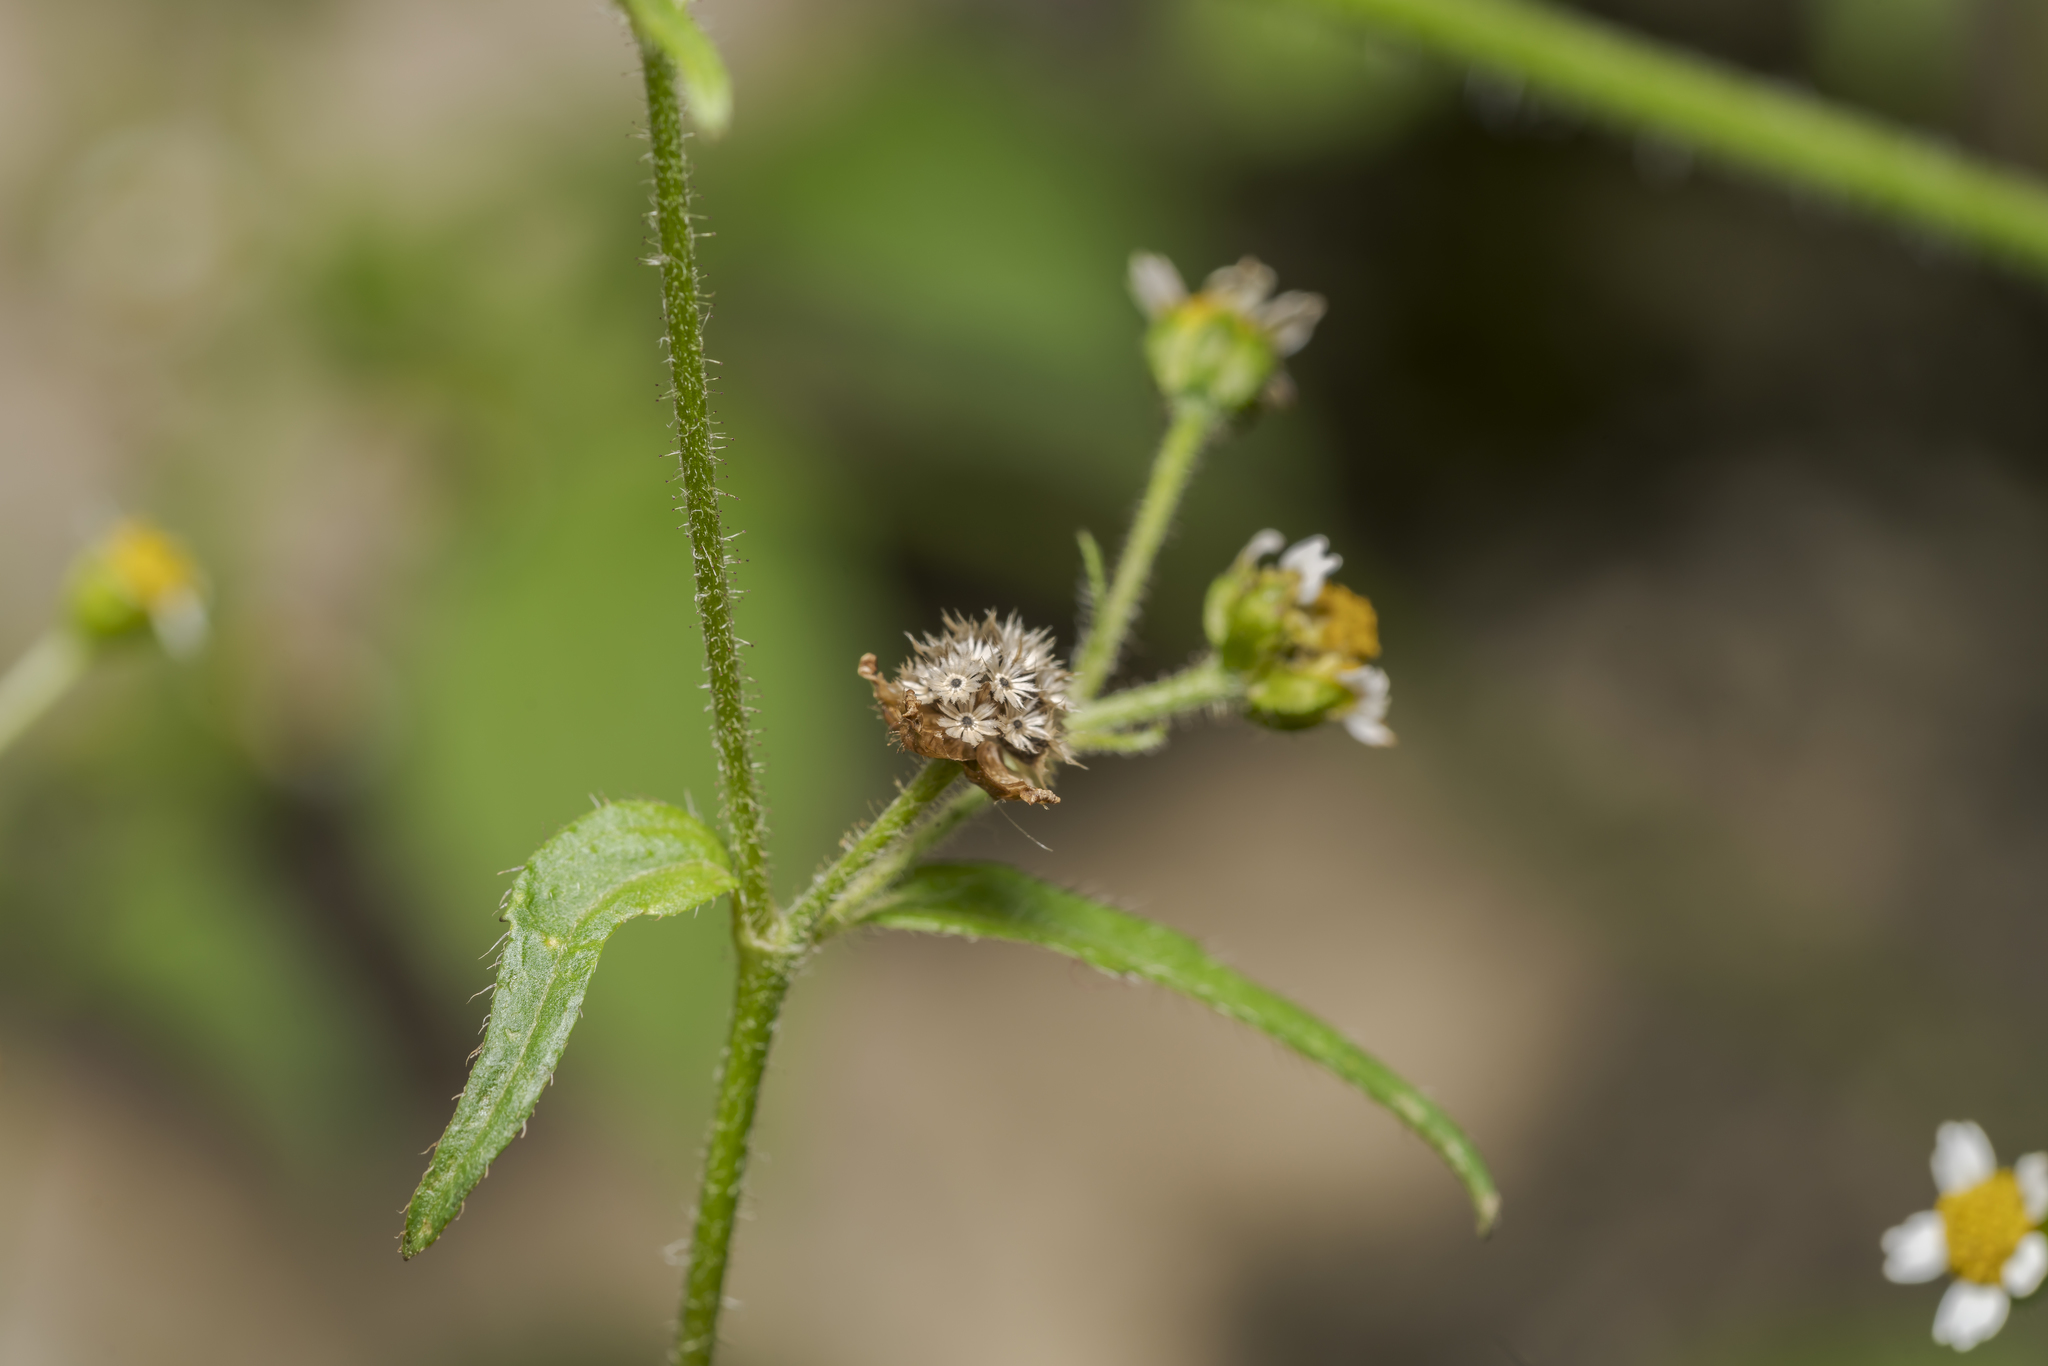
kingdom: Plantae
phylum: Tracheophyta
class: Magnoliopsida
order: Asterales
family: Asteraceae
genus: Galinsoga
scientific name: Galinsoga quadriradiata
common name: Shaggy soldier
